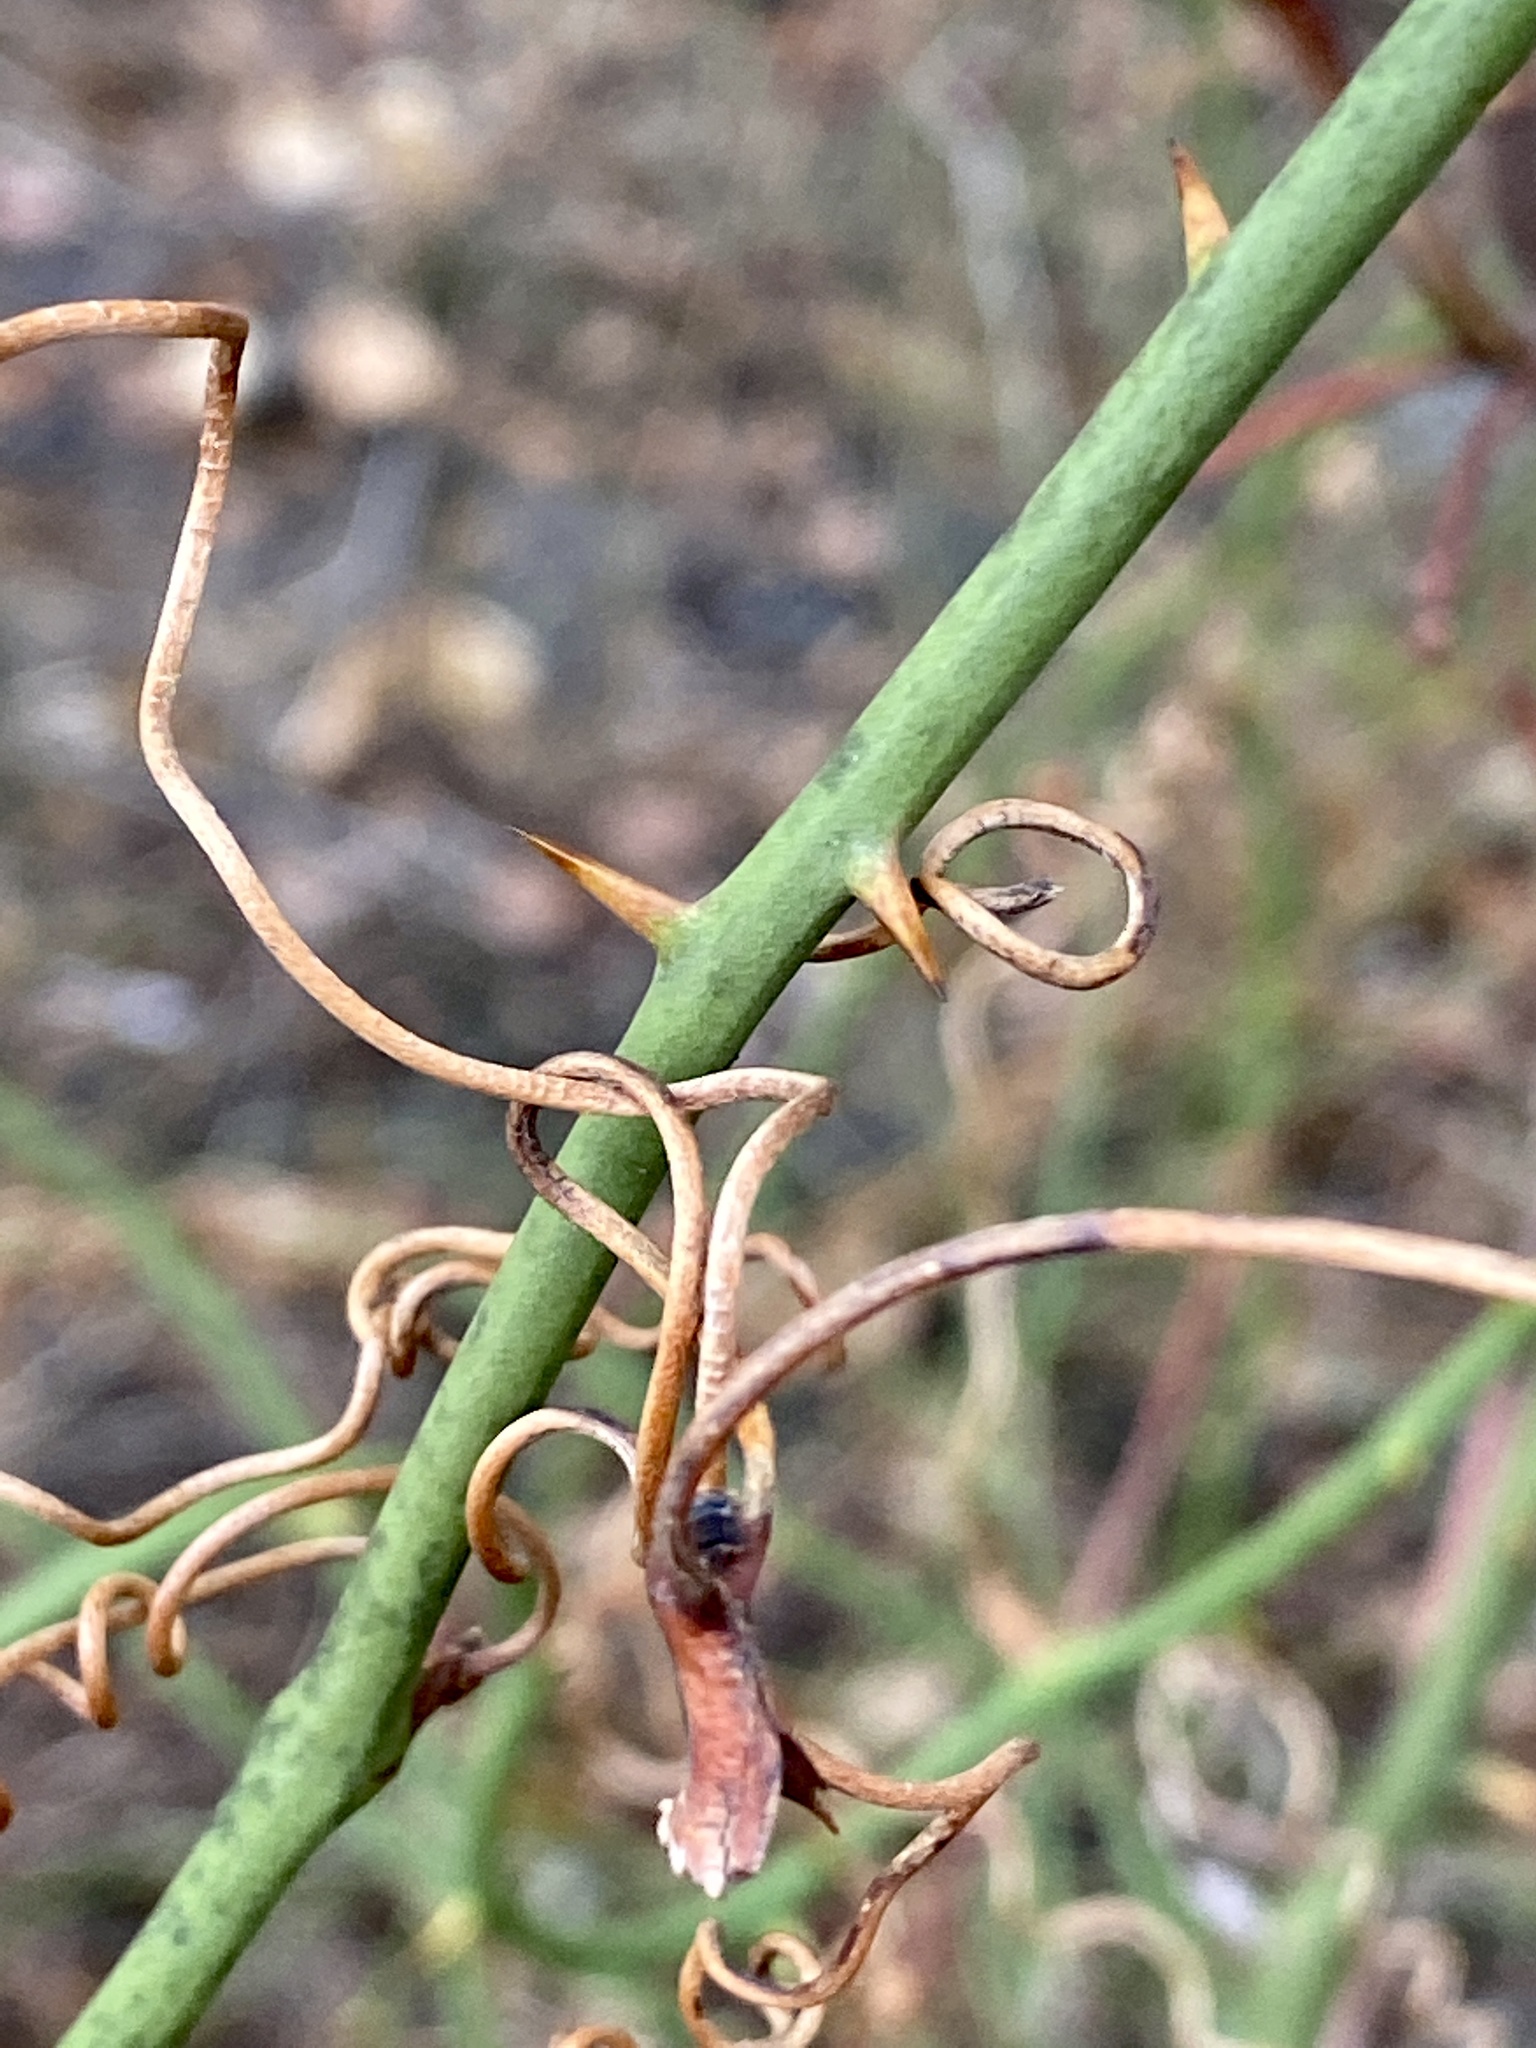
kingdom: Plantae
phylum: Tracheophyta
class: Liliopsida
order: Liliales
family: Smilacaceae
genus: Smilax
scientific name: Smilax rotundifolia
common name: Bullbriar
